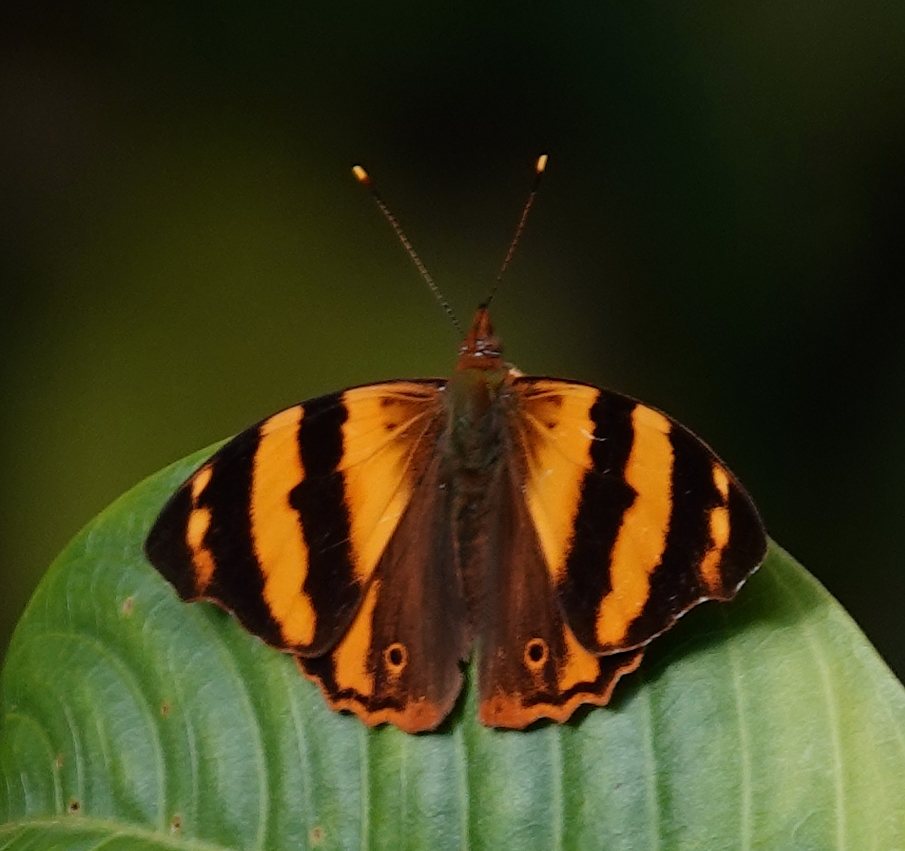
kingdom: Animalia
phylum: Arthropoda
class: Insecta
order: Lepidoptera
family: Nymphalidae
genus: Epiphile
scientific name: Epiphile chrysites
